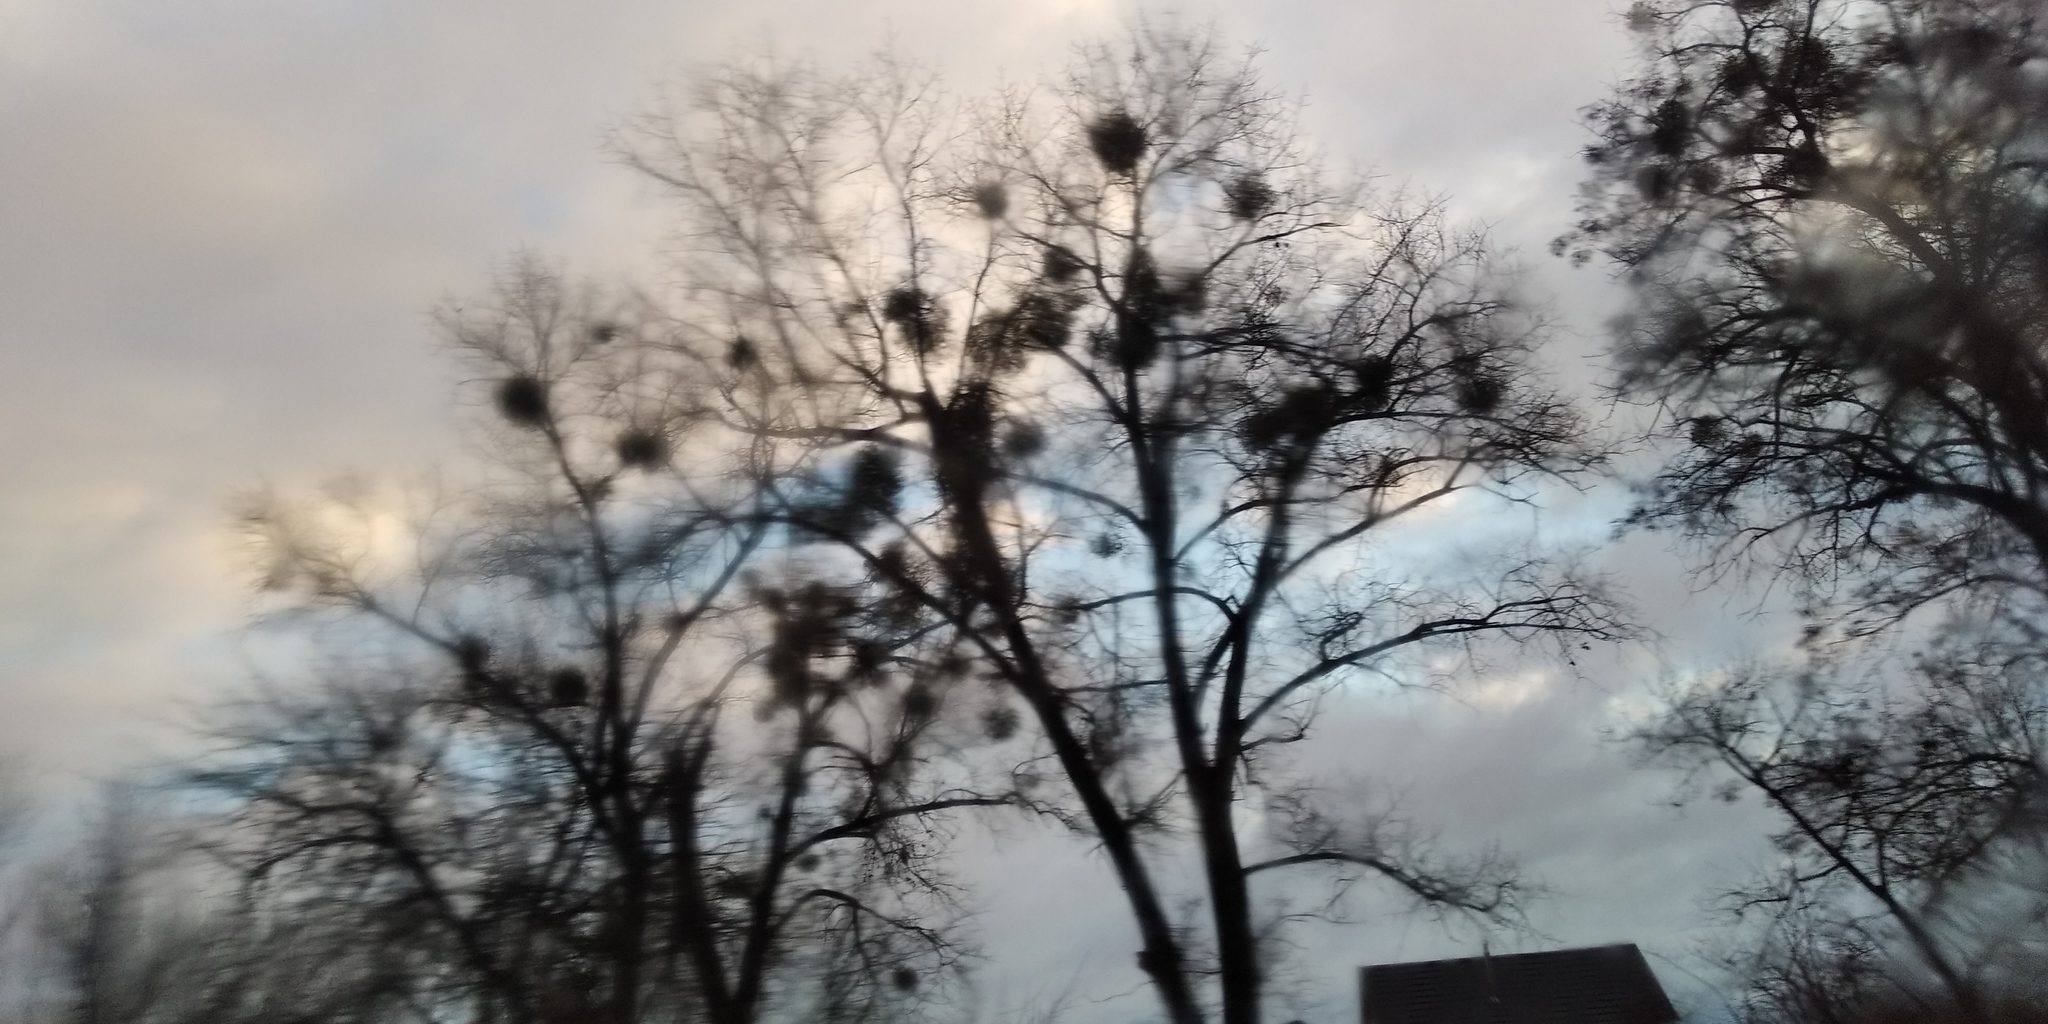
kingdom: Plantae
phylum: Tracheophyta
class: Magnoliopsida
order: Santalales
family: Viscaceae
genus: Viscum
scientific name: Viscum album
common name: Mistletoe
